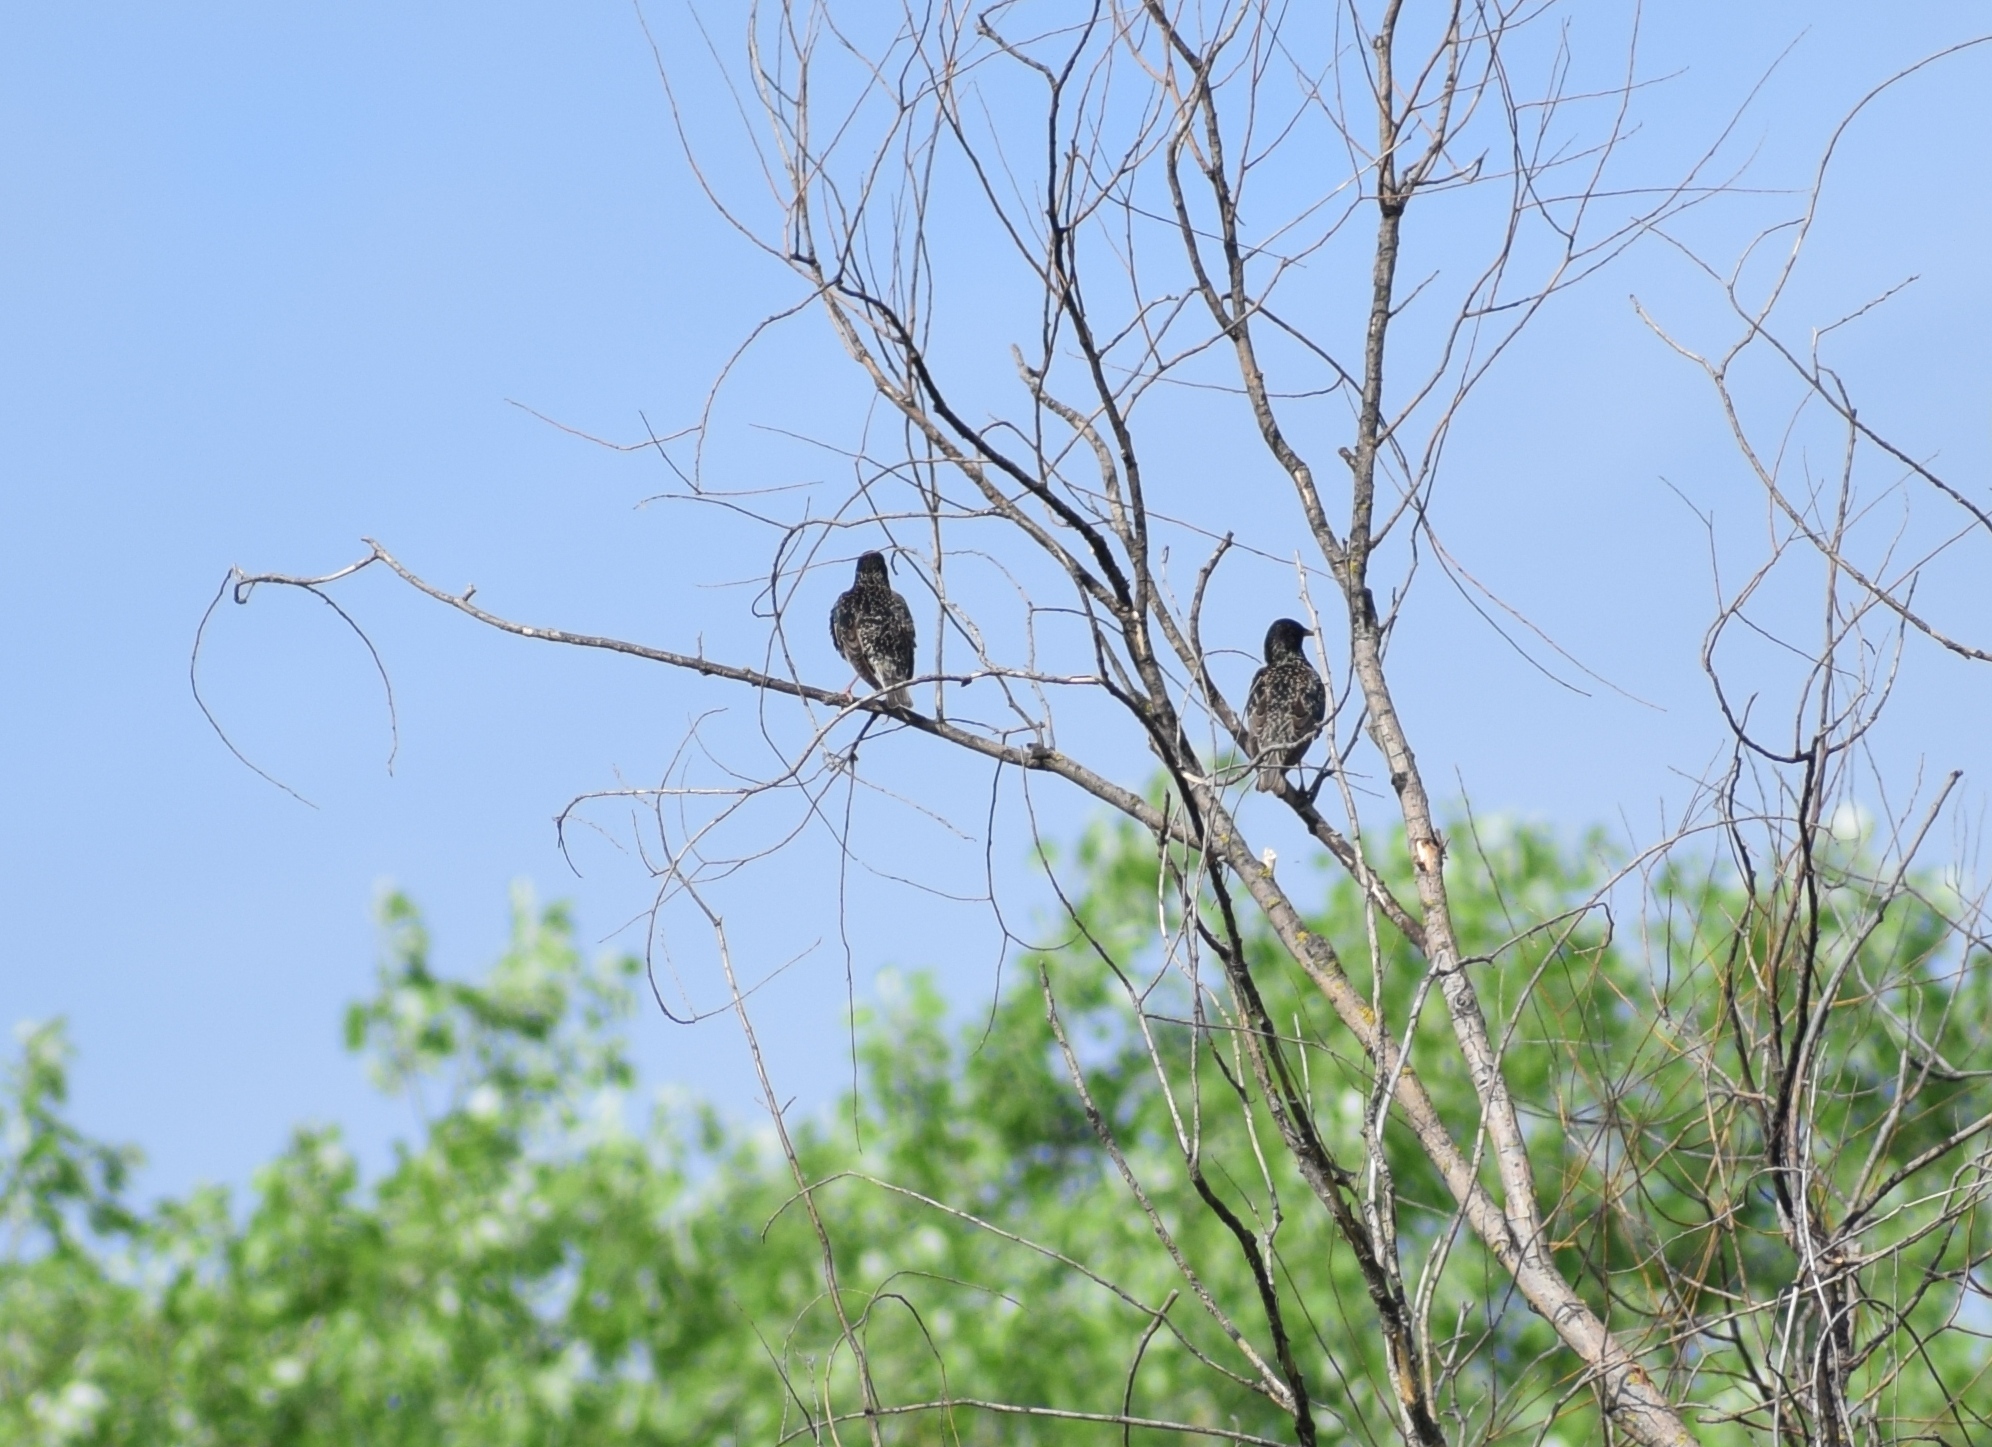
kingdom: Animalia
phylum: Chordata
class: Aves
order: Passeriformes
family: Sturnidae
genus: Sturnus
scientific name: Sturnus vulgaris
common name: Common starling
